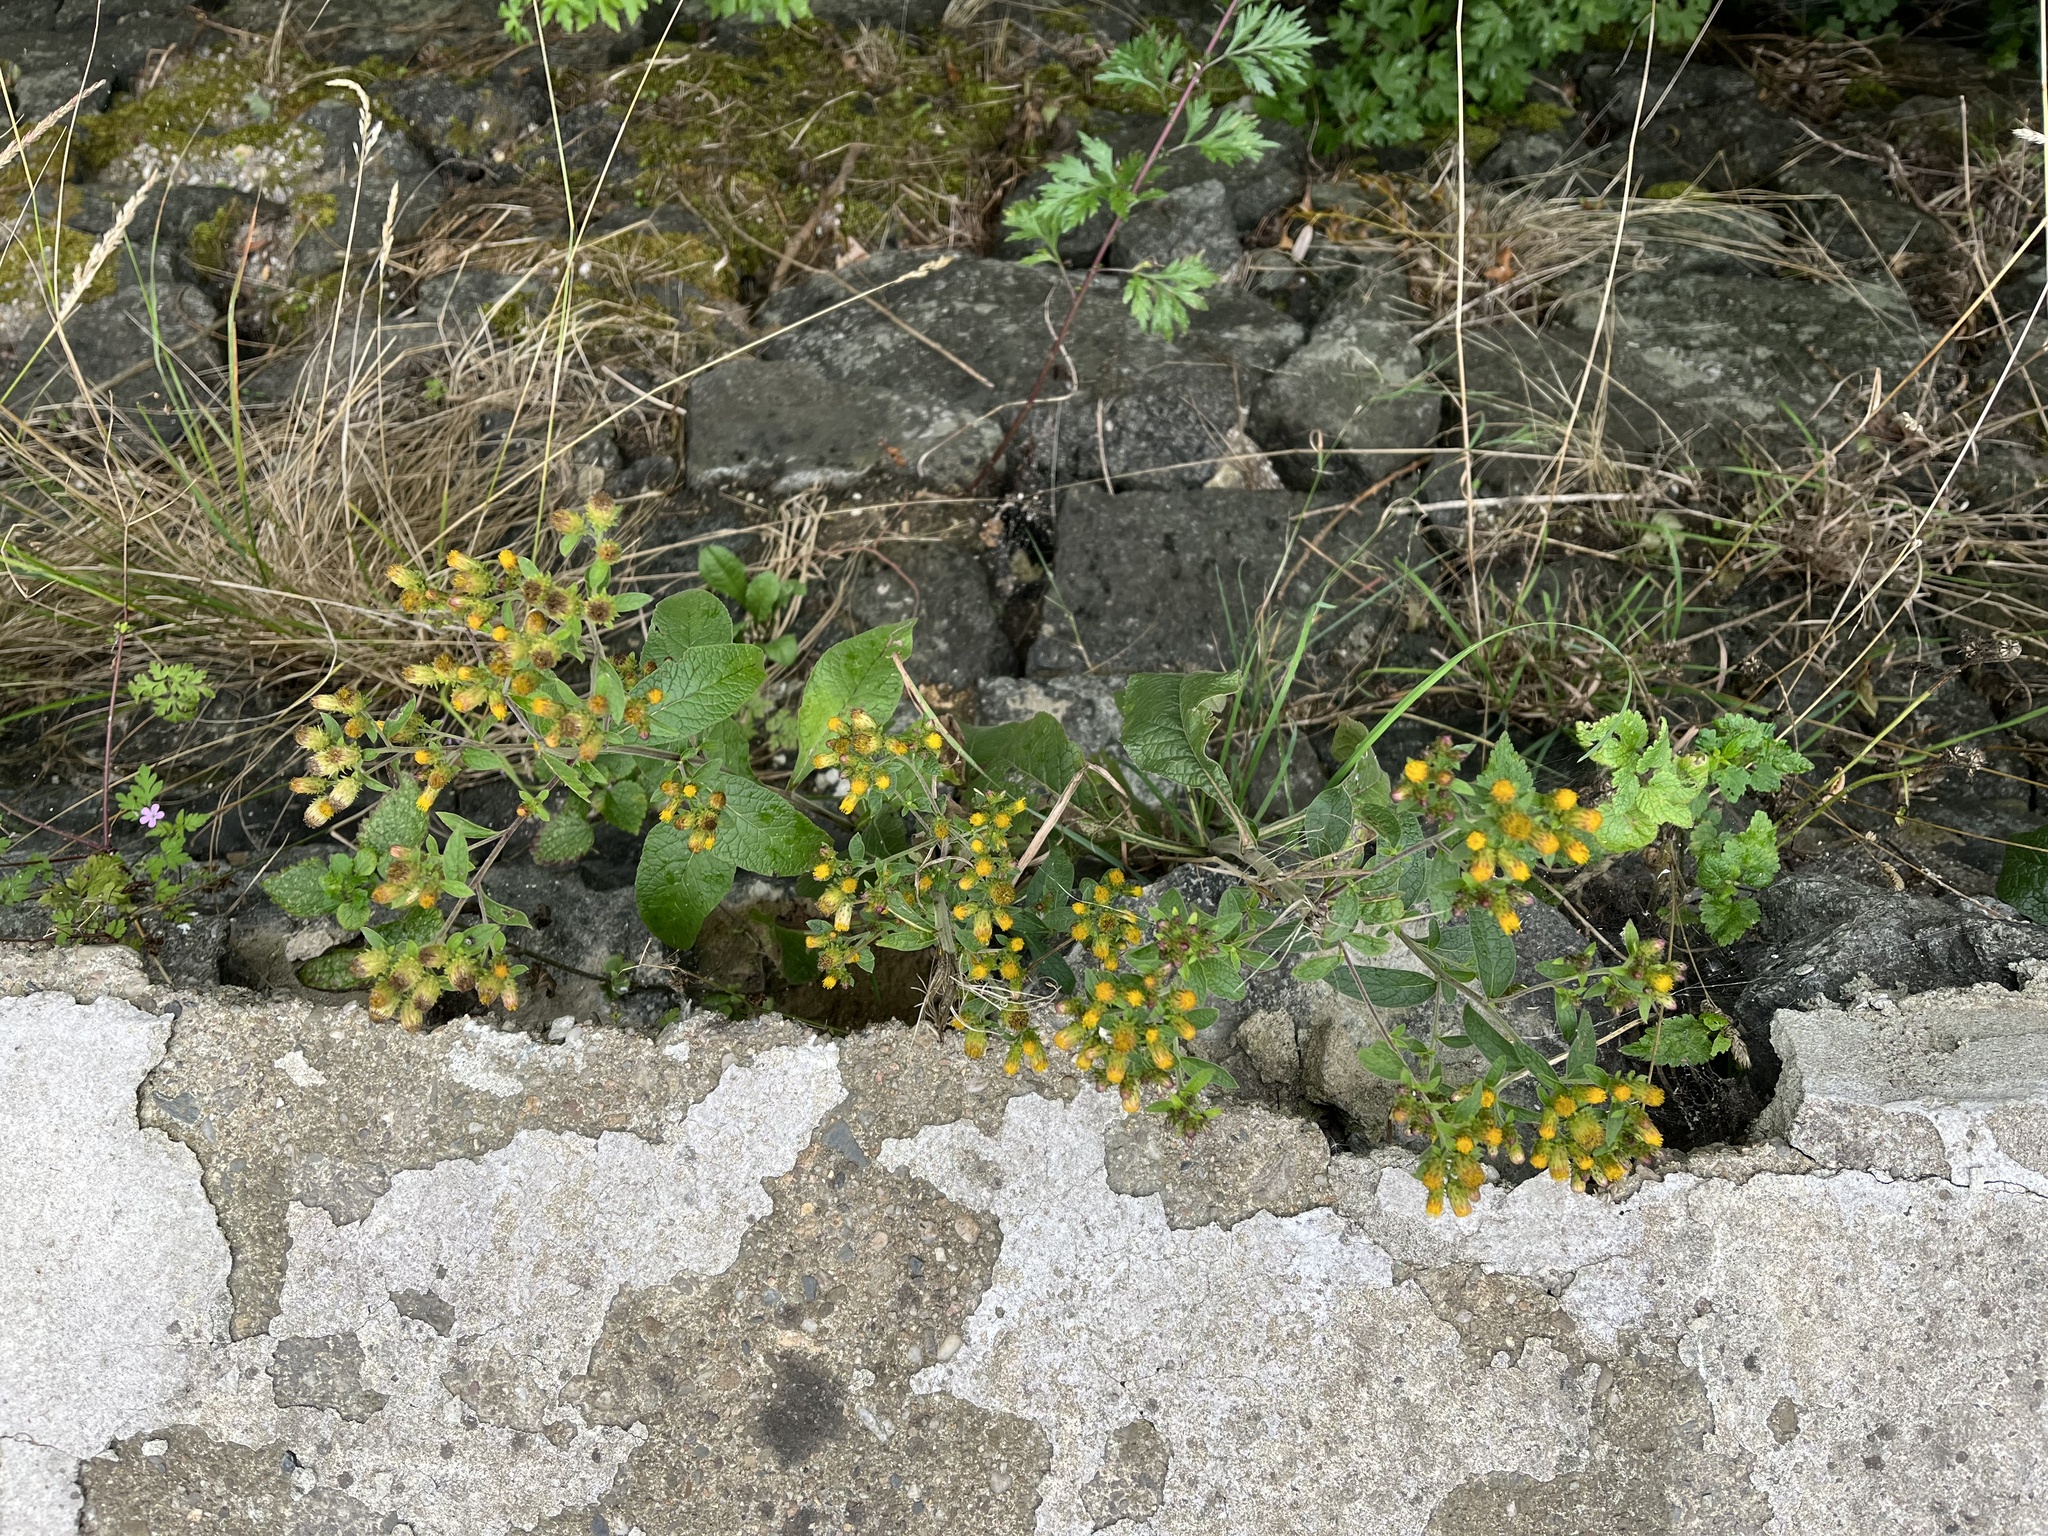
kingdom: Plantae
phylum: Tracheophyta
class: Magnoliopsida
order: Asterales
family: Asteraceae
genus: Pentanema
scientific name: Pentanema squarrosum
